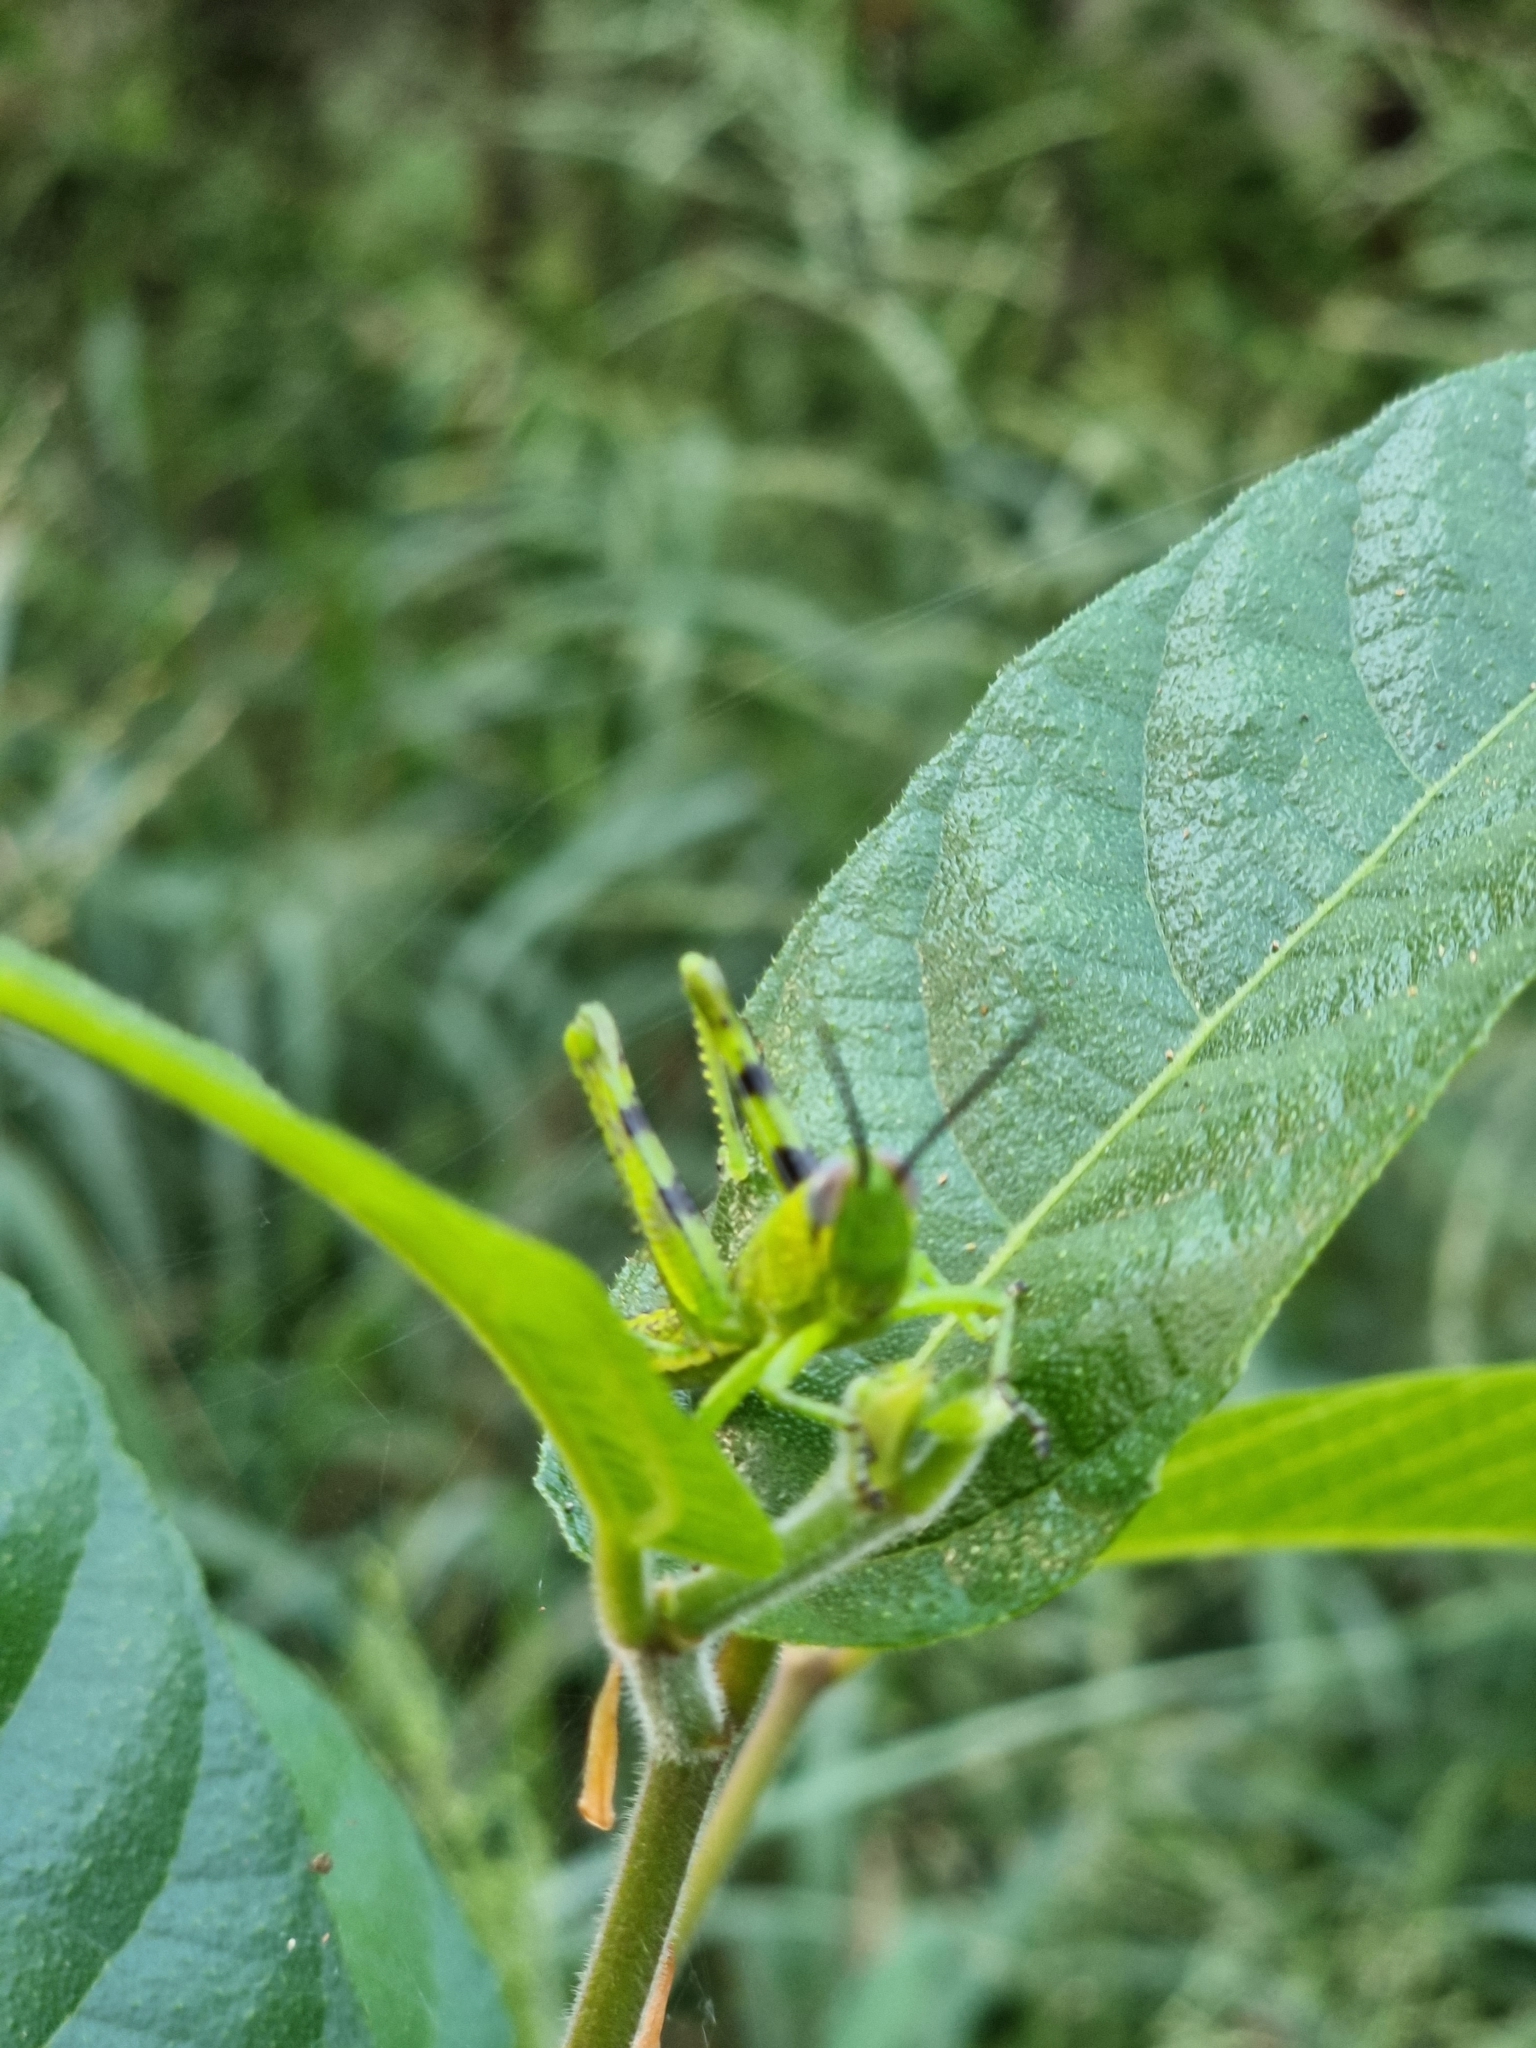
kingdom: Animalia
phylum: Arthropoda
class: Insecta
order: Orthoptera
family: Acrididae
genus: Valanga
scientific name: Valanga irregularis
